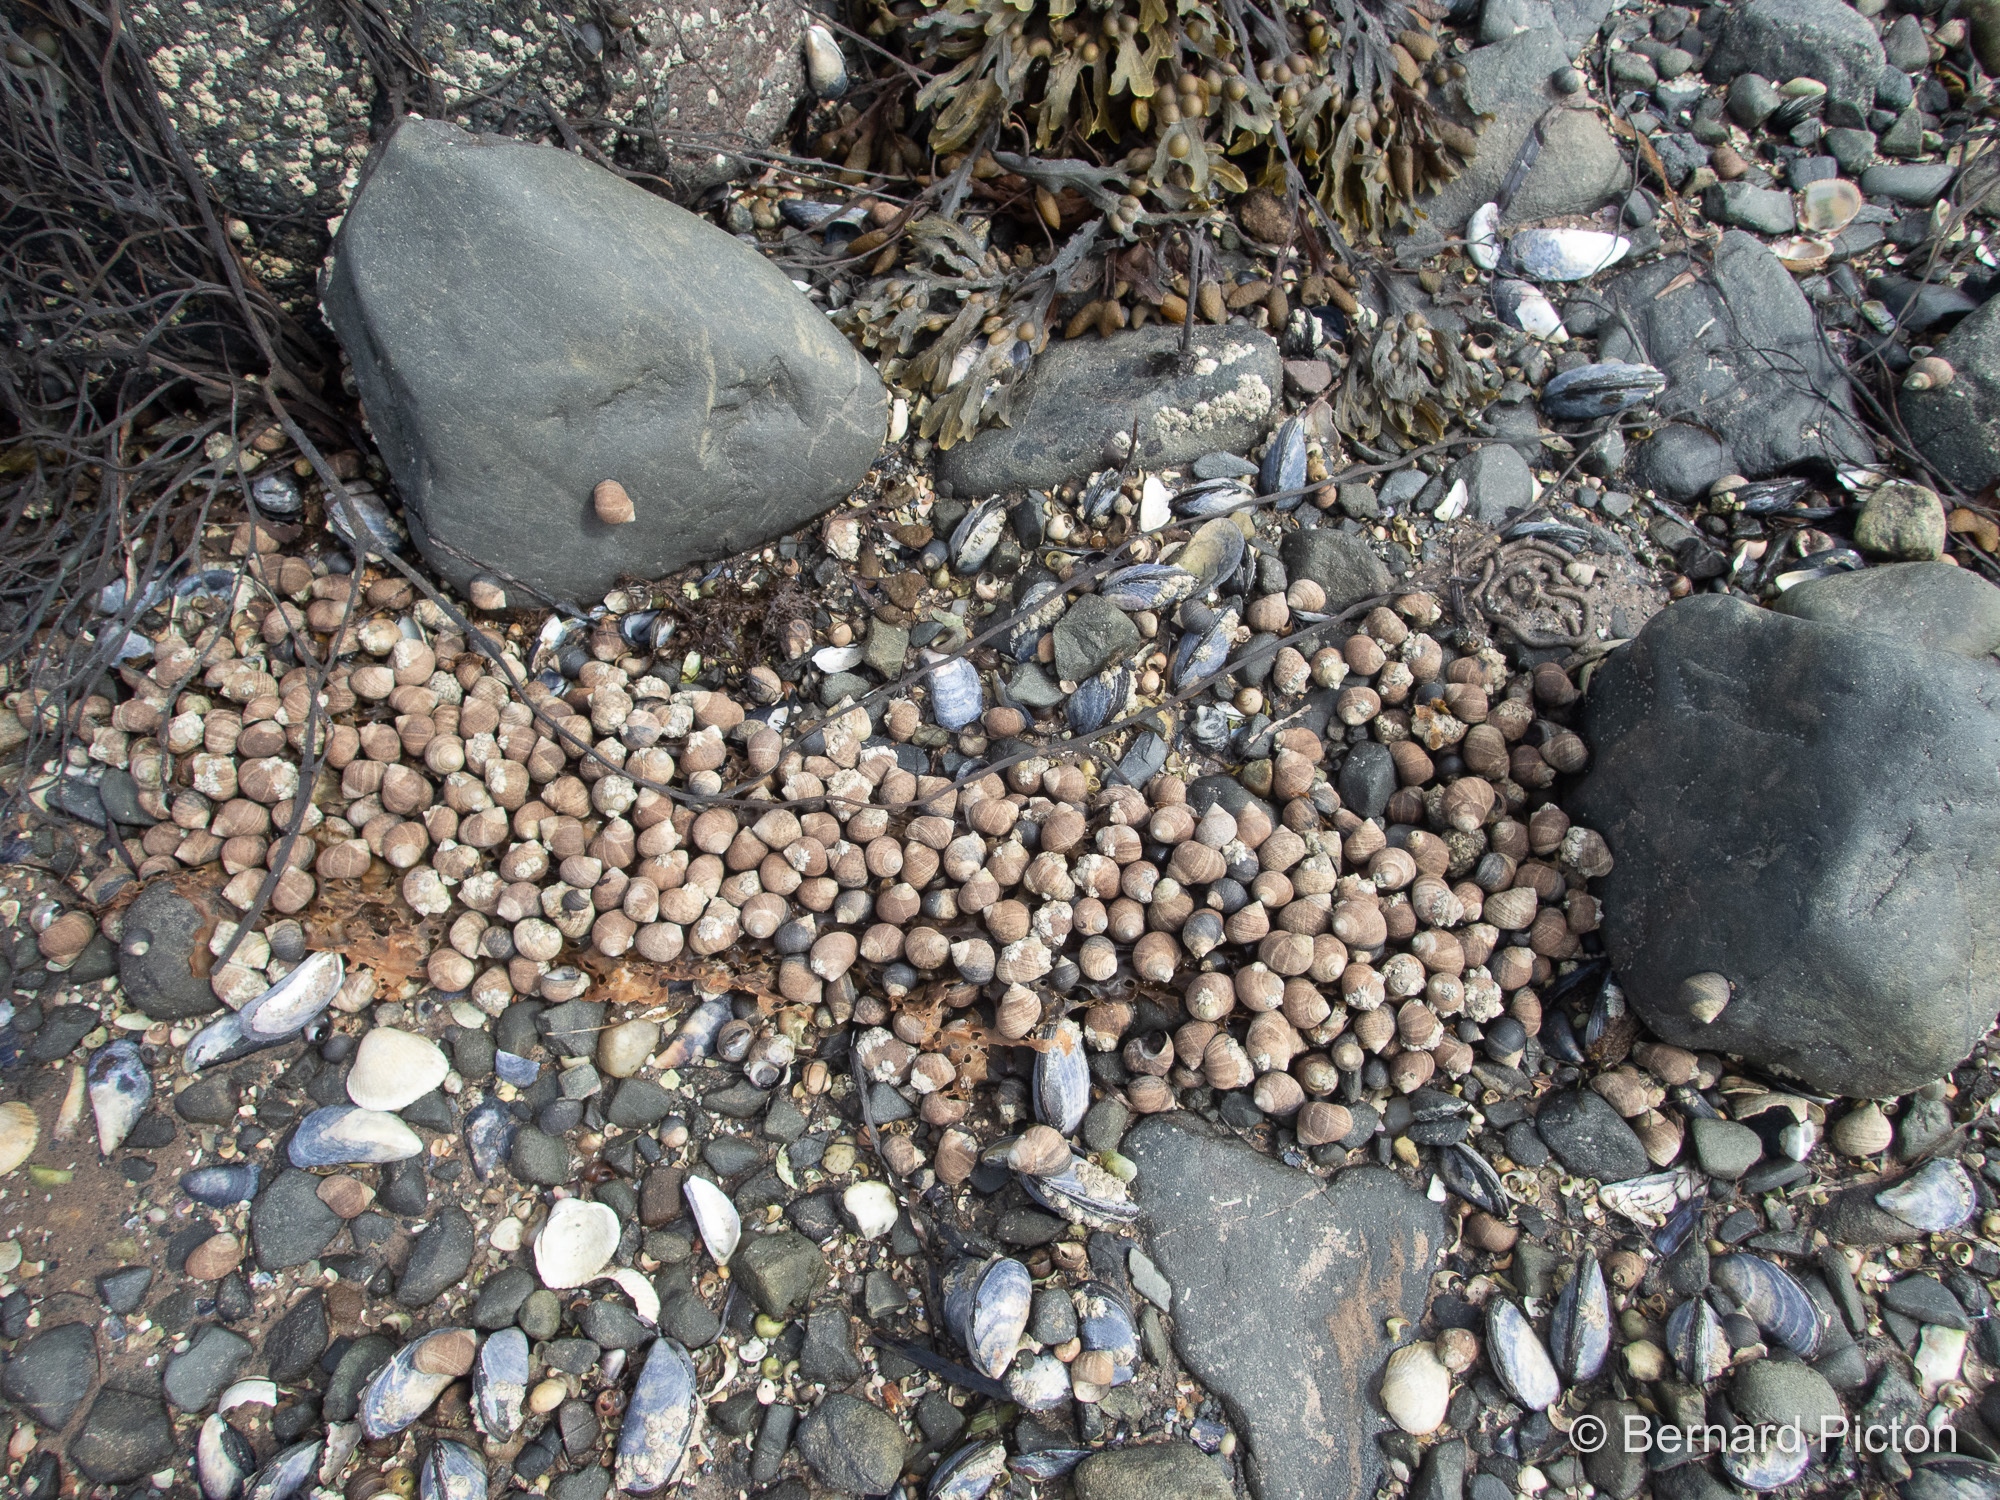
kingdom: Animalia
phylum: Mollusca
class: Gastropoda
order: Littorinimorpha
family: Littorinidae
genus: Littorina
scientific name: Littorina littorea
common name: Common periwinkle
